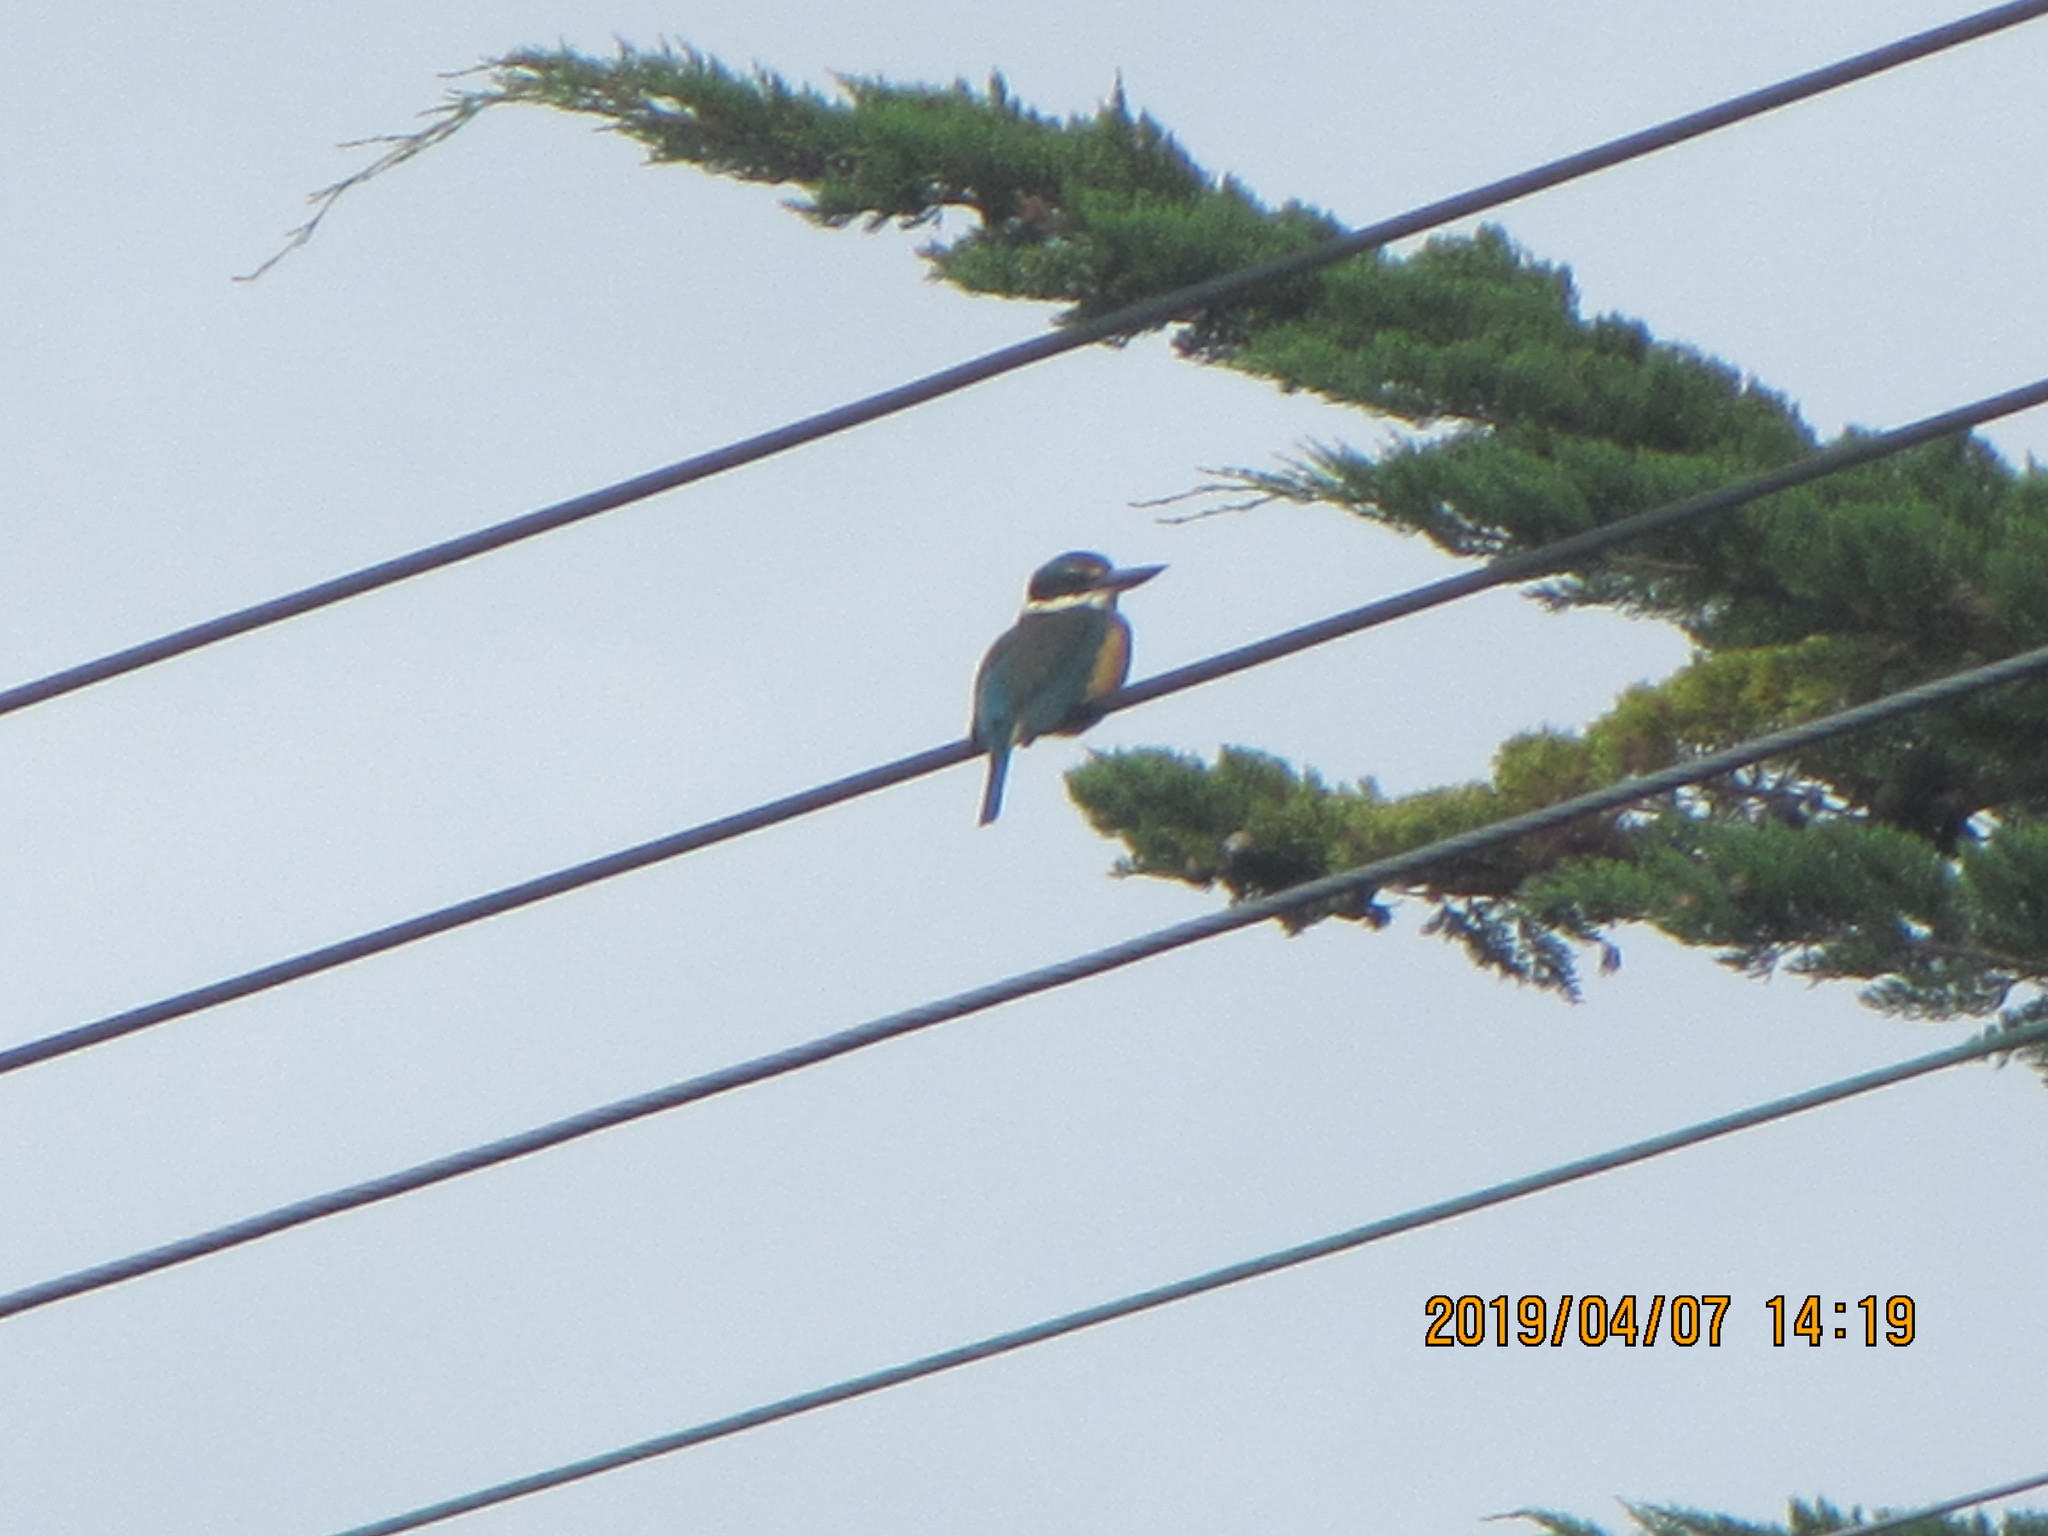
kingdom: Animalia
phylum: Chordata
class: Aves
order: Coraciiformes
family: Alcedinidae
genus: Todiramphus
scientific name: Todiramphus sanctus
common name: Sacred kingfisher
